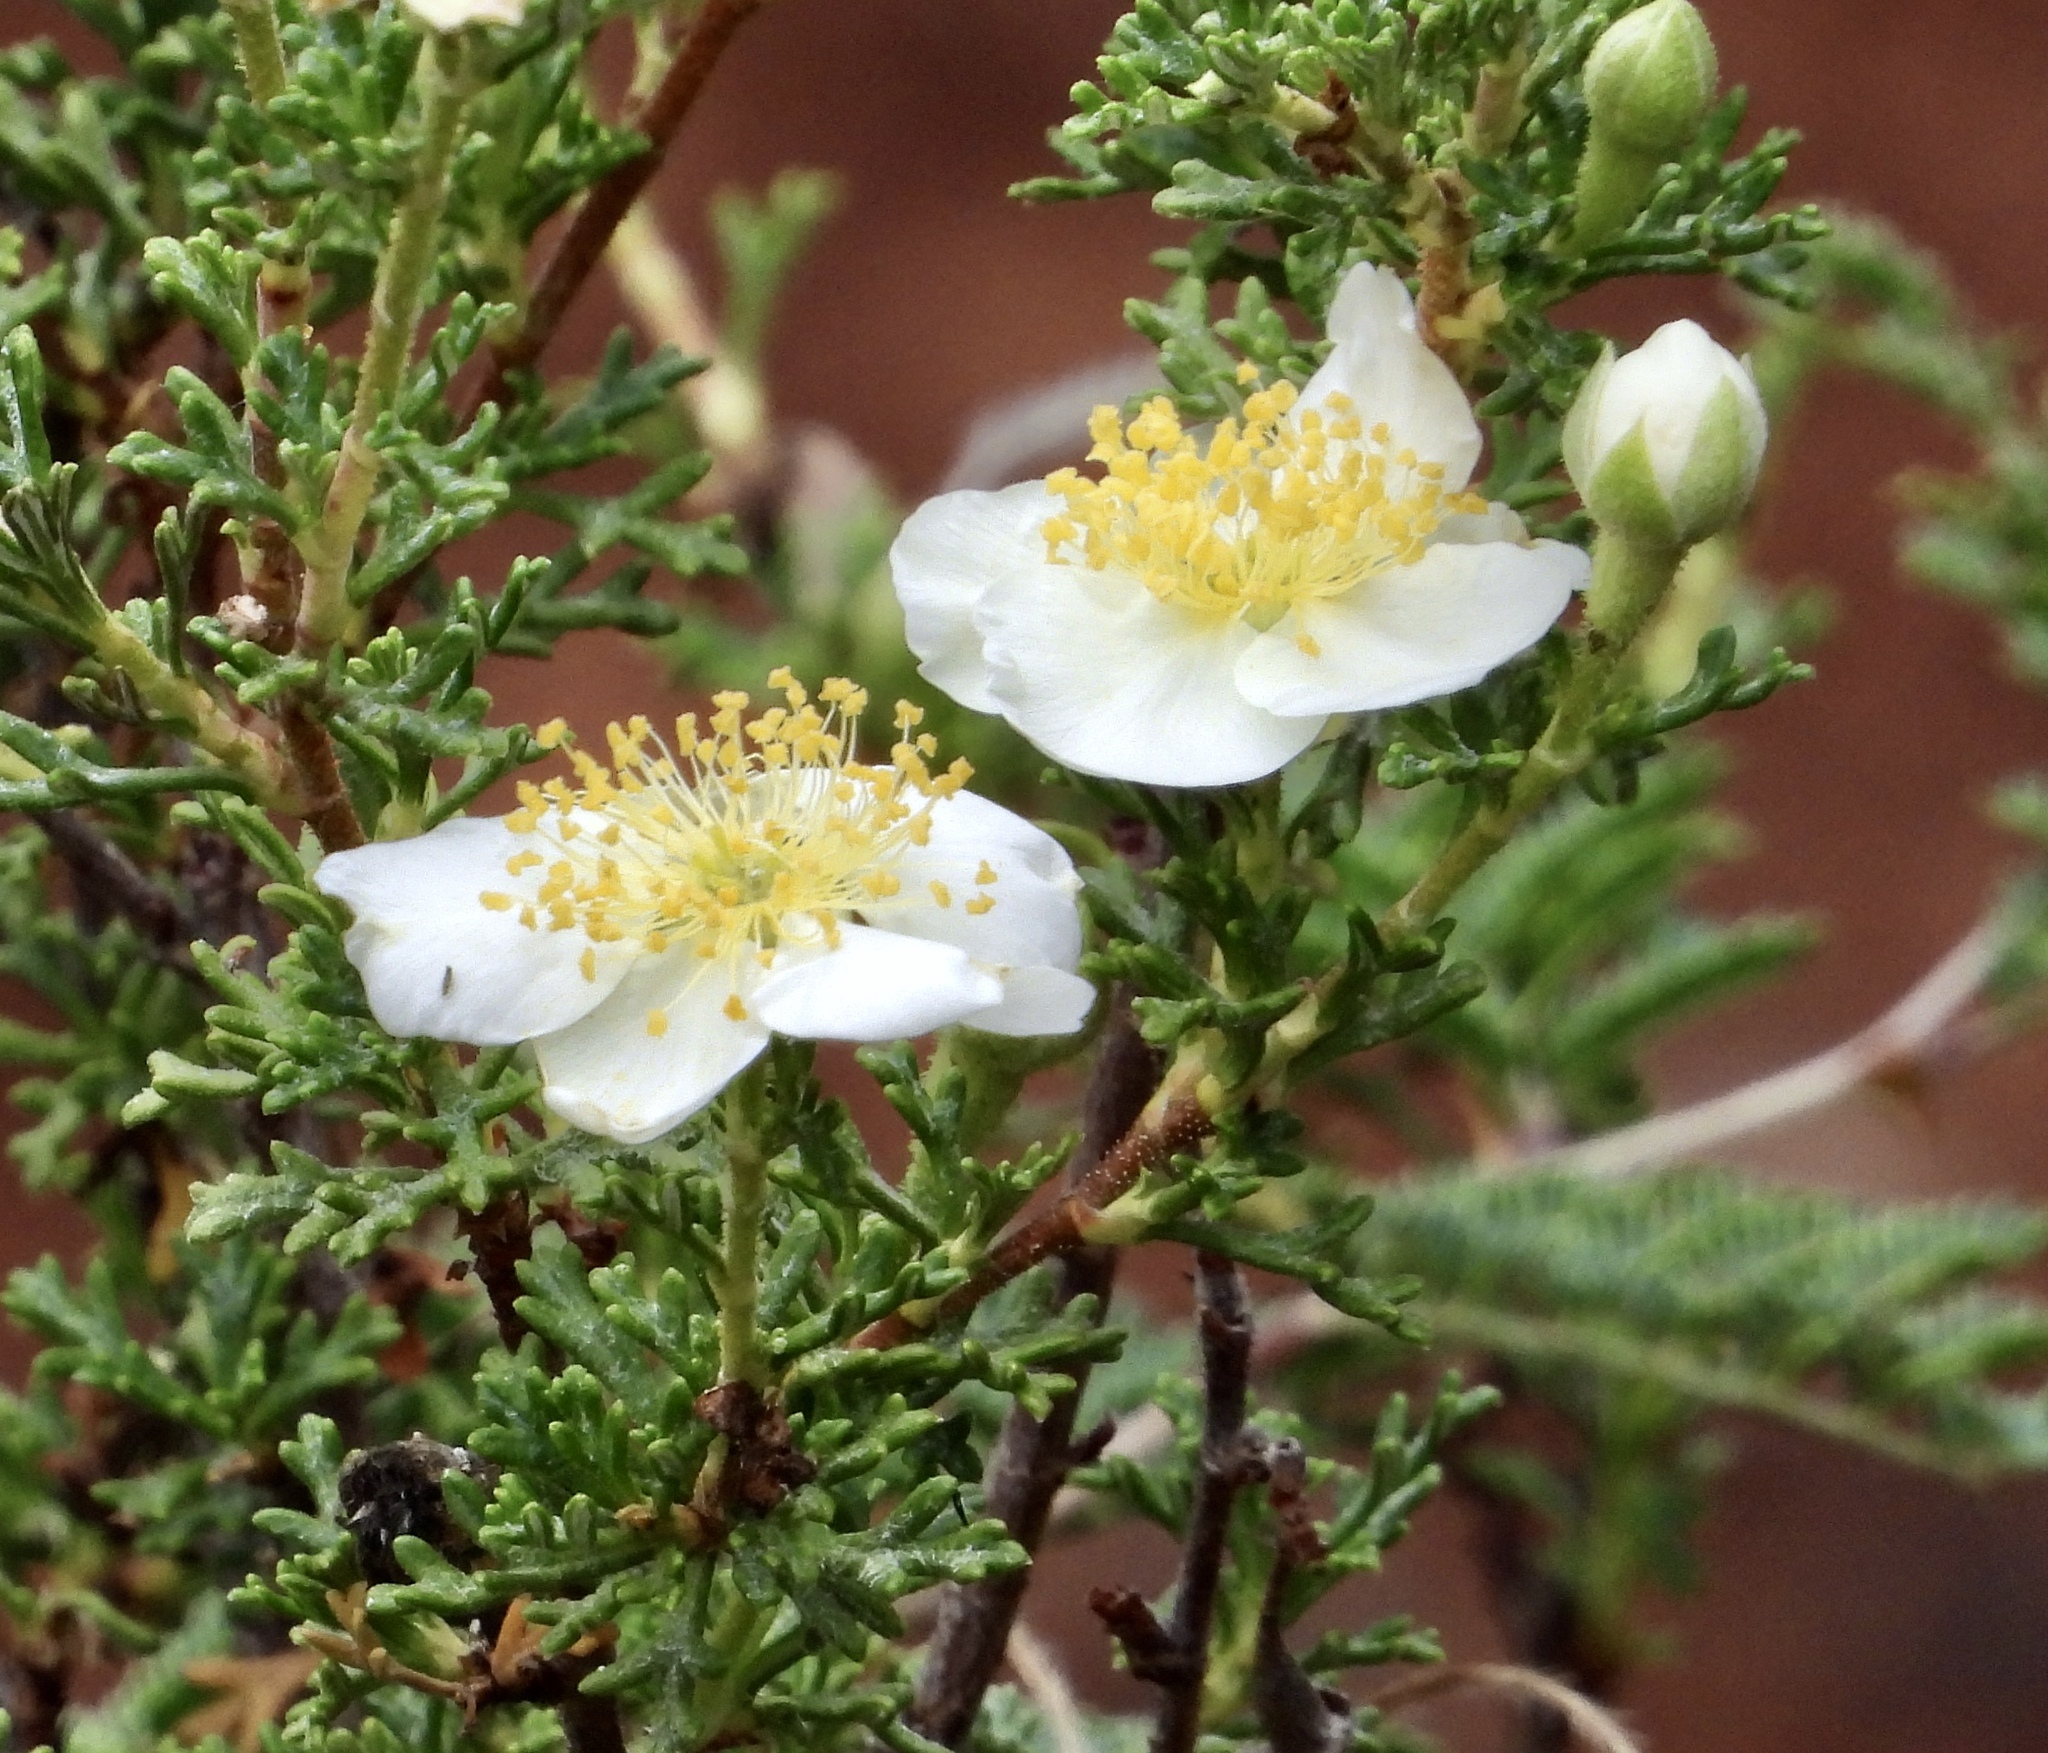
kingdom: Plantae
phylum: Tracheophyta
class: Magnoliopsida
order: Rosales
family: Rosaceae
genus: Purshia
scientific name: Purshia stansburiana
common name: Stansbury's cliffrose
